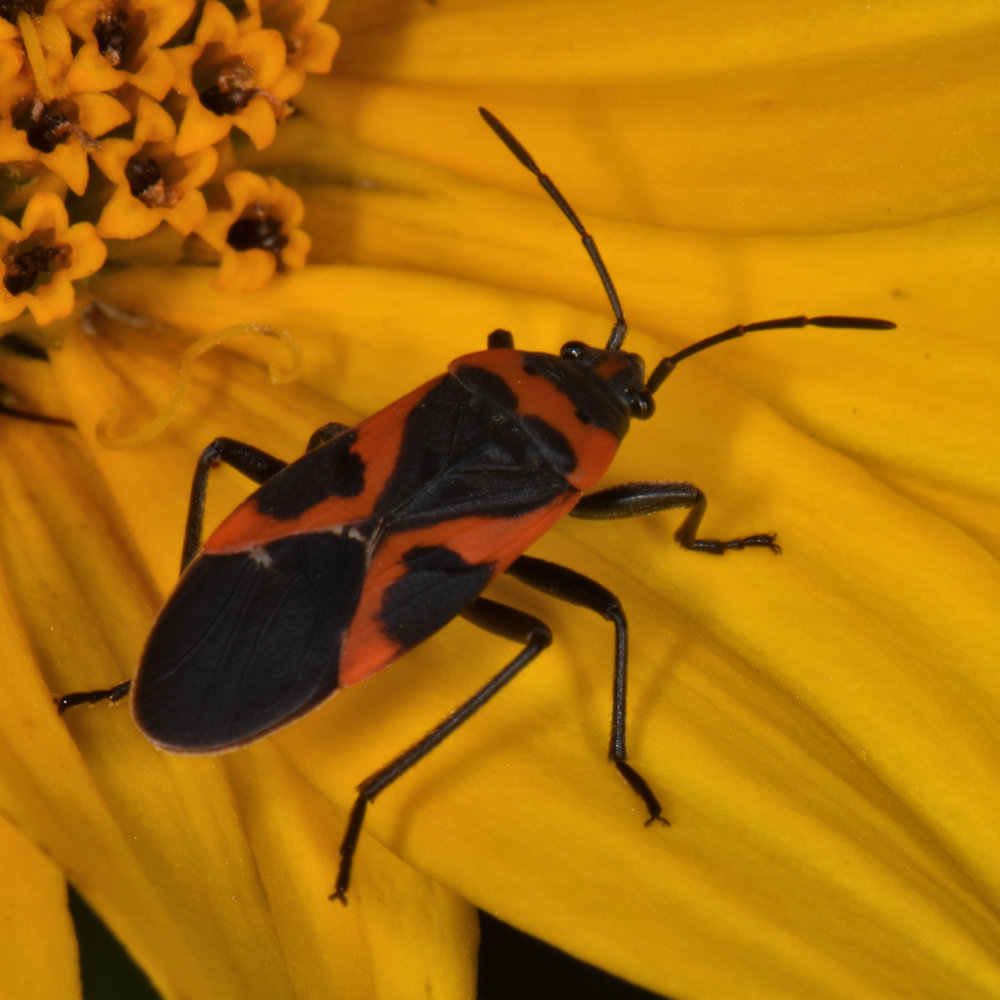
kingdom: Animalia
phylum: Arthropoda
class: Insecta
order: Hemiptera
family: Lygaeidae
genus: Lygaeus
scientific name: Lygaeus kalmii
